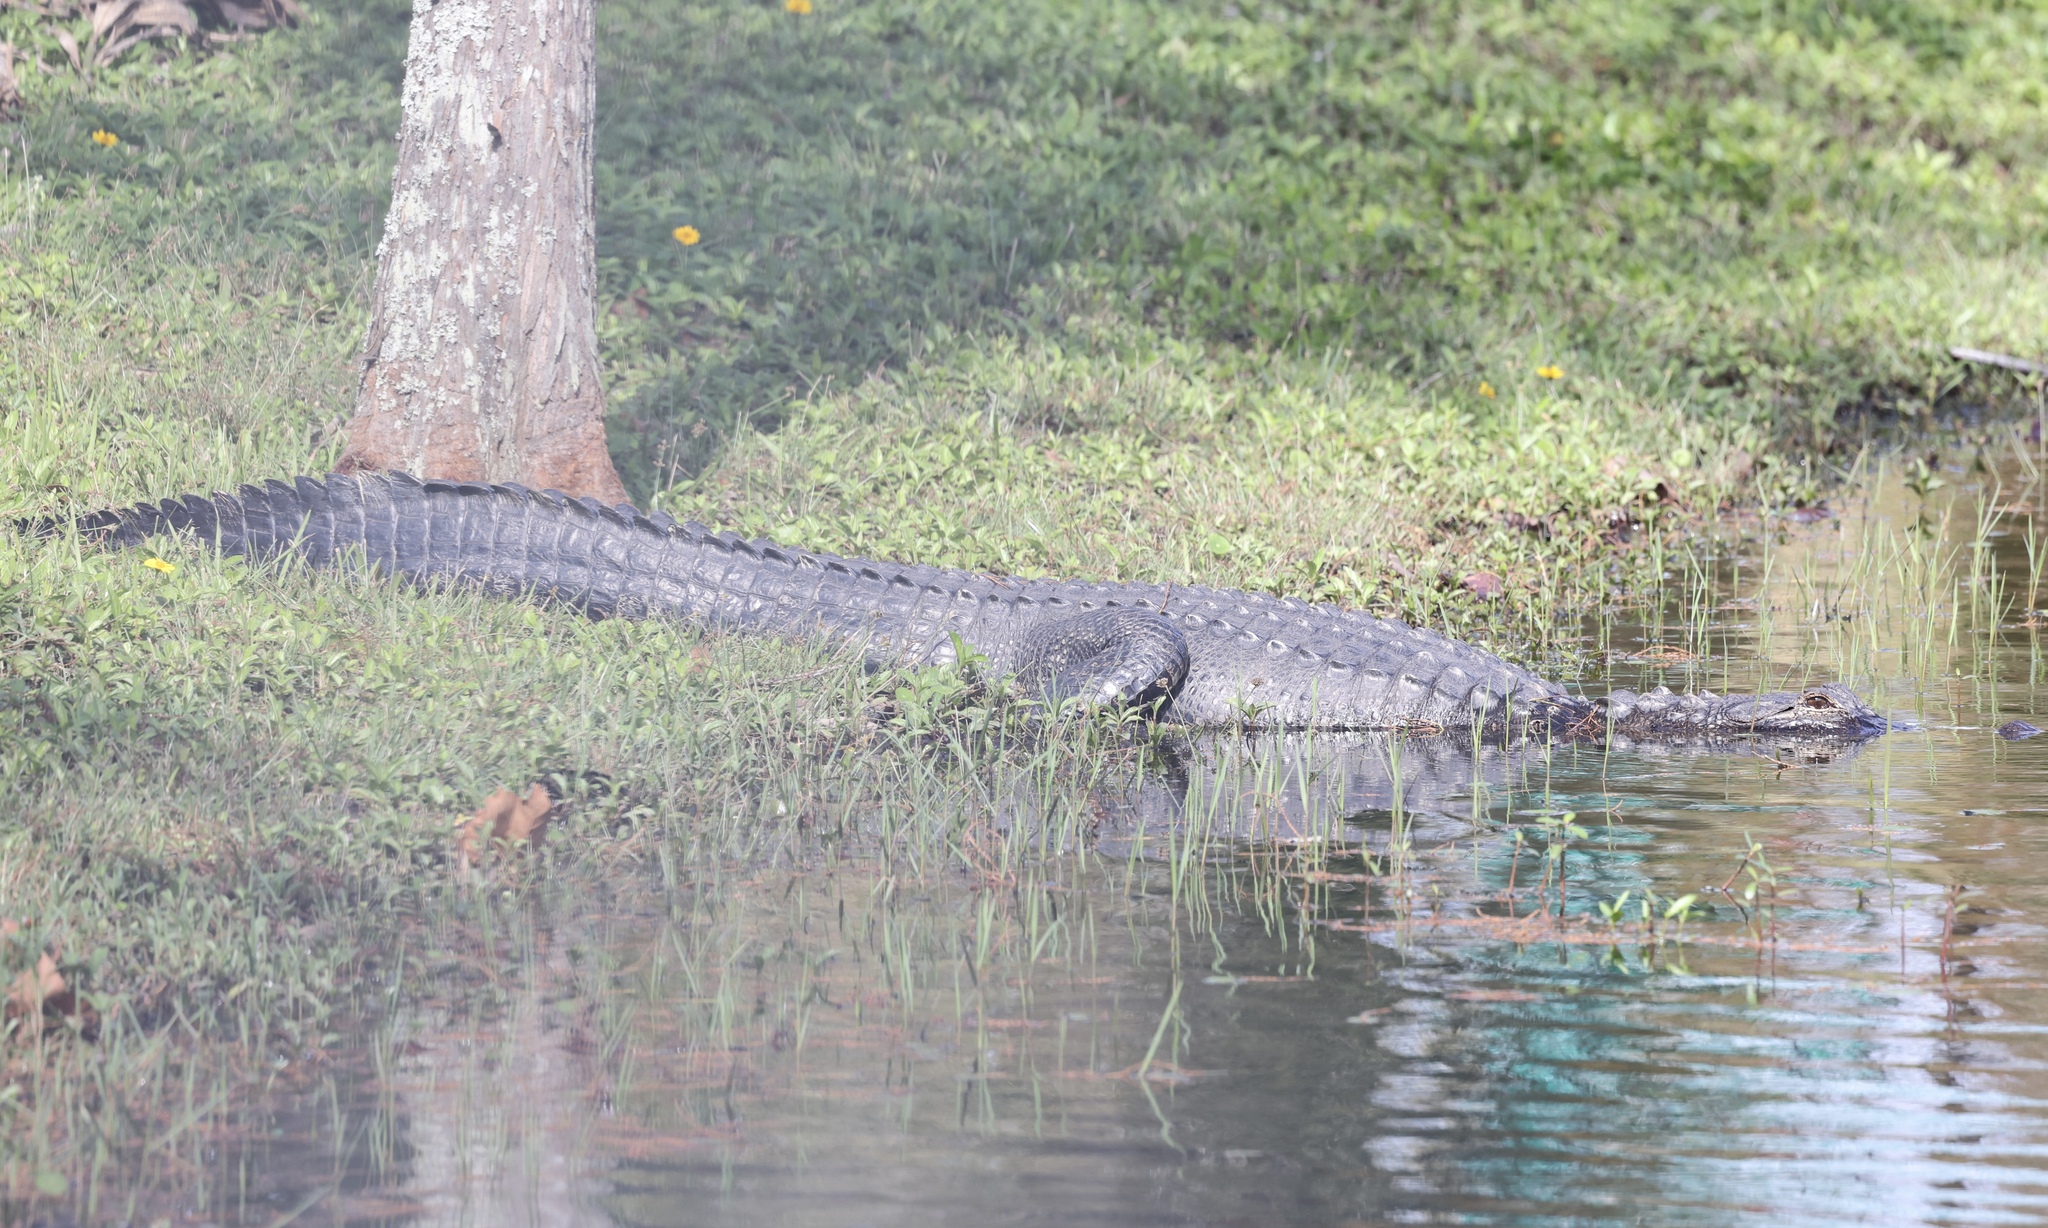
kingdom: Animalia
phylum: Chordata
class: Crocodylia
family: Alligatoridae
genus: Alligator
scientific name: Alligator mississippiensis
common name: American alligator
